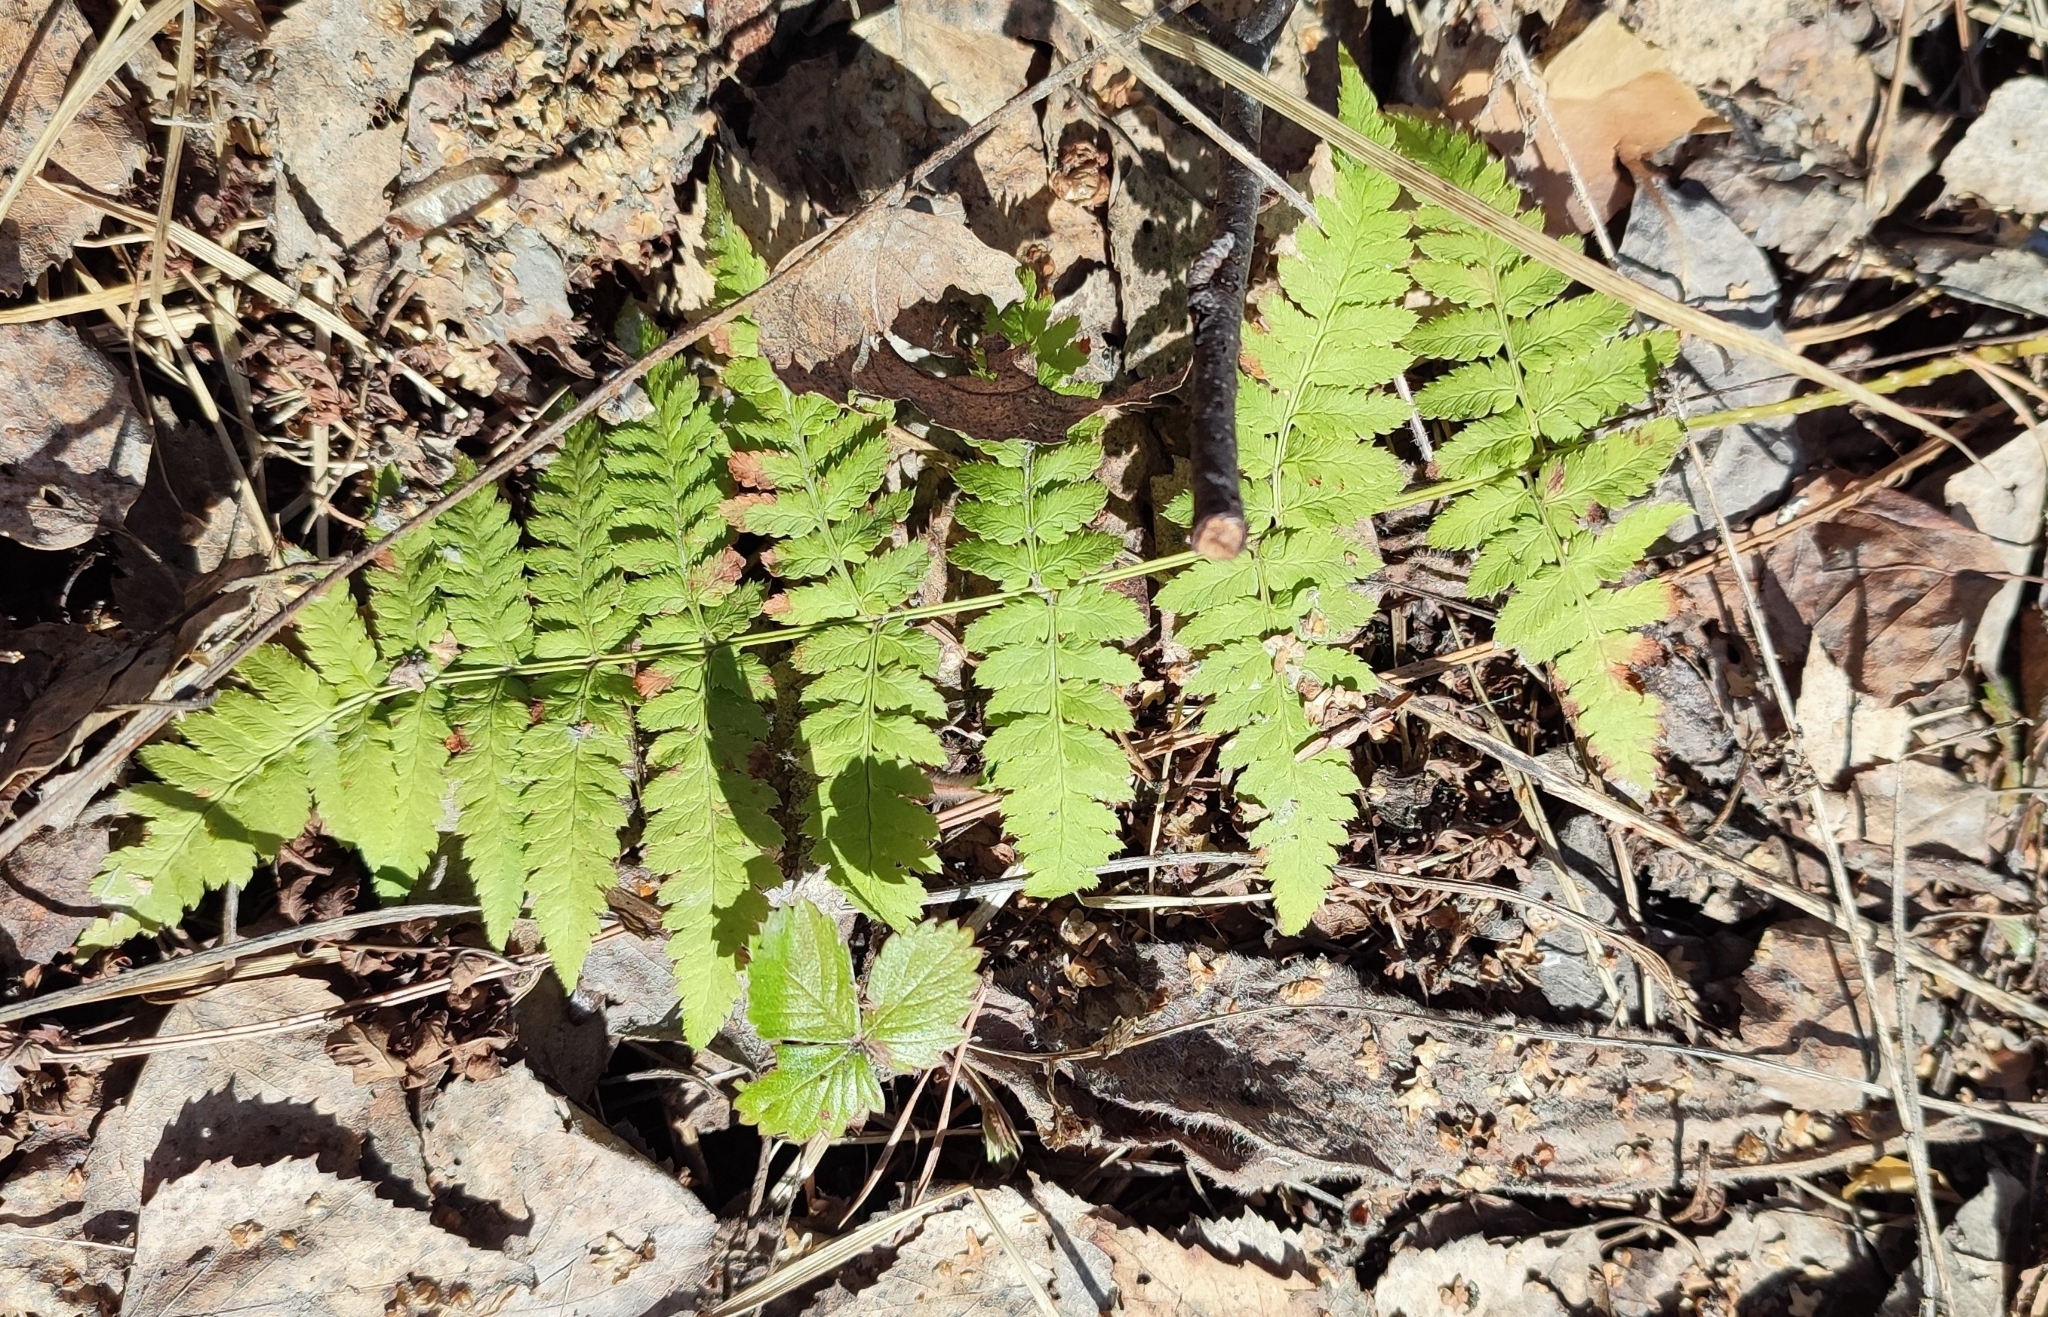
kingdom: Plantae
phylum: Tracheophyta
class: Polypodiopsida
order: Polypodiales
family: Dryopteridaceae
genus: Dryopteris
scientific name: Dryopteris carthusiana
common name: Narrow buckler-fern
